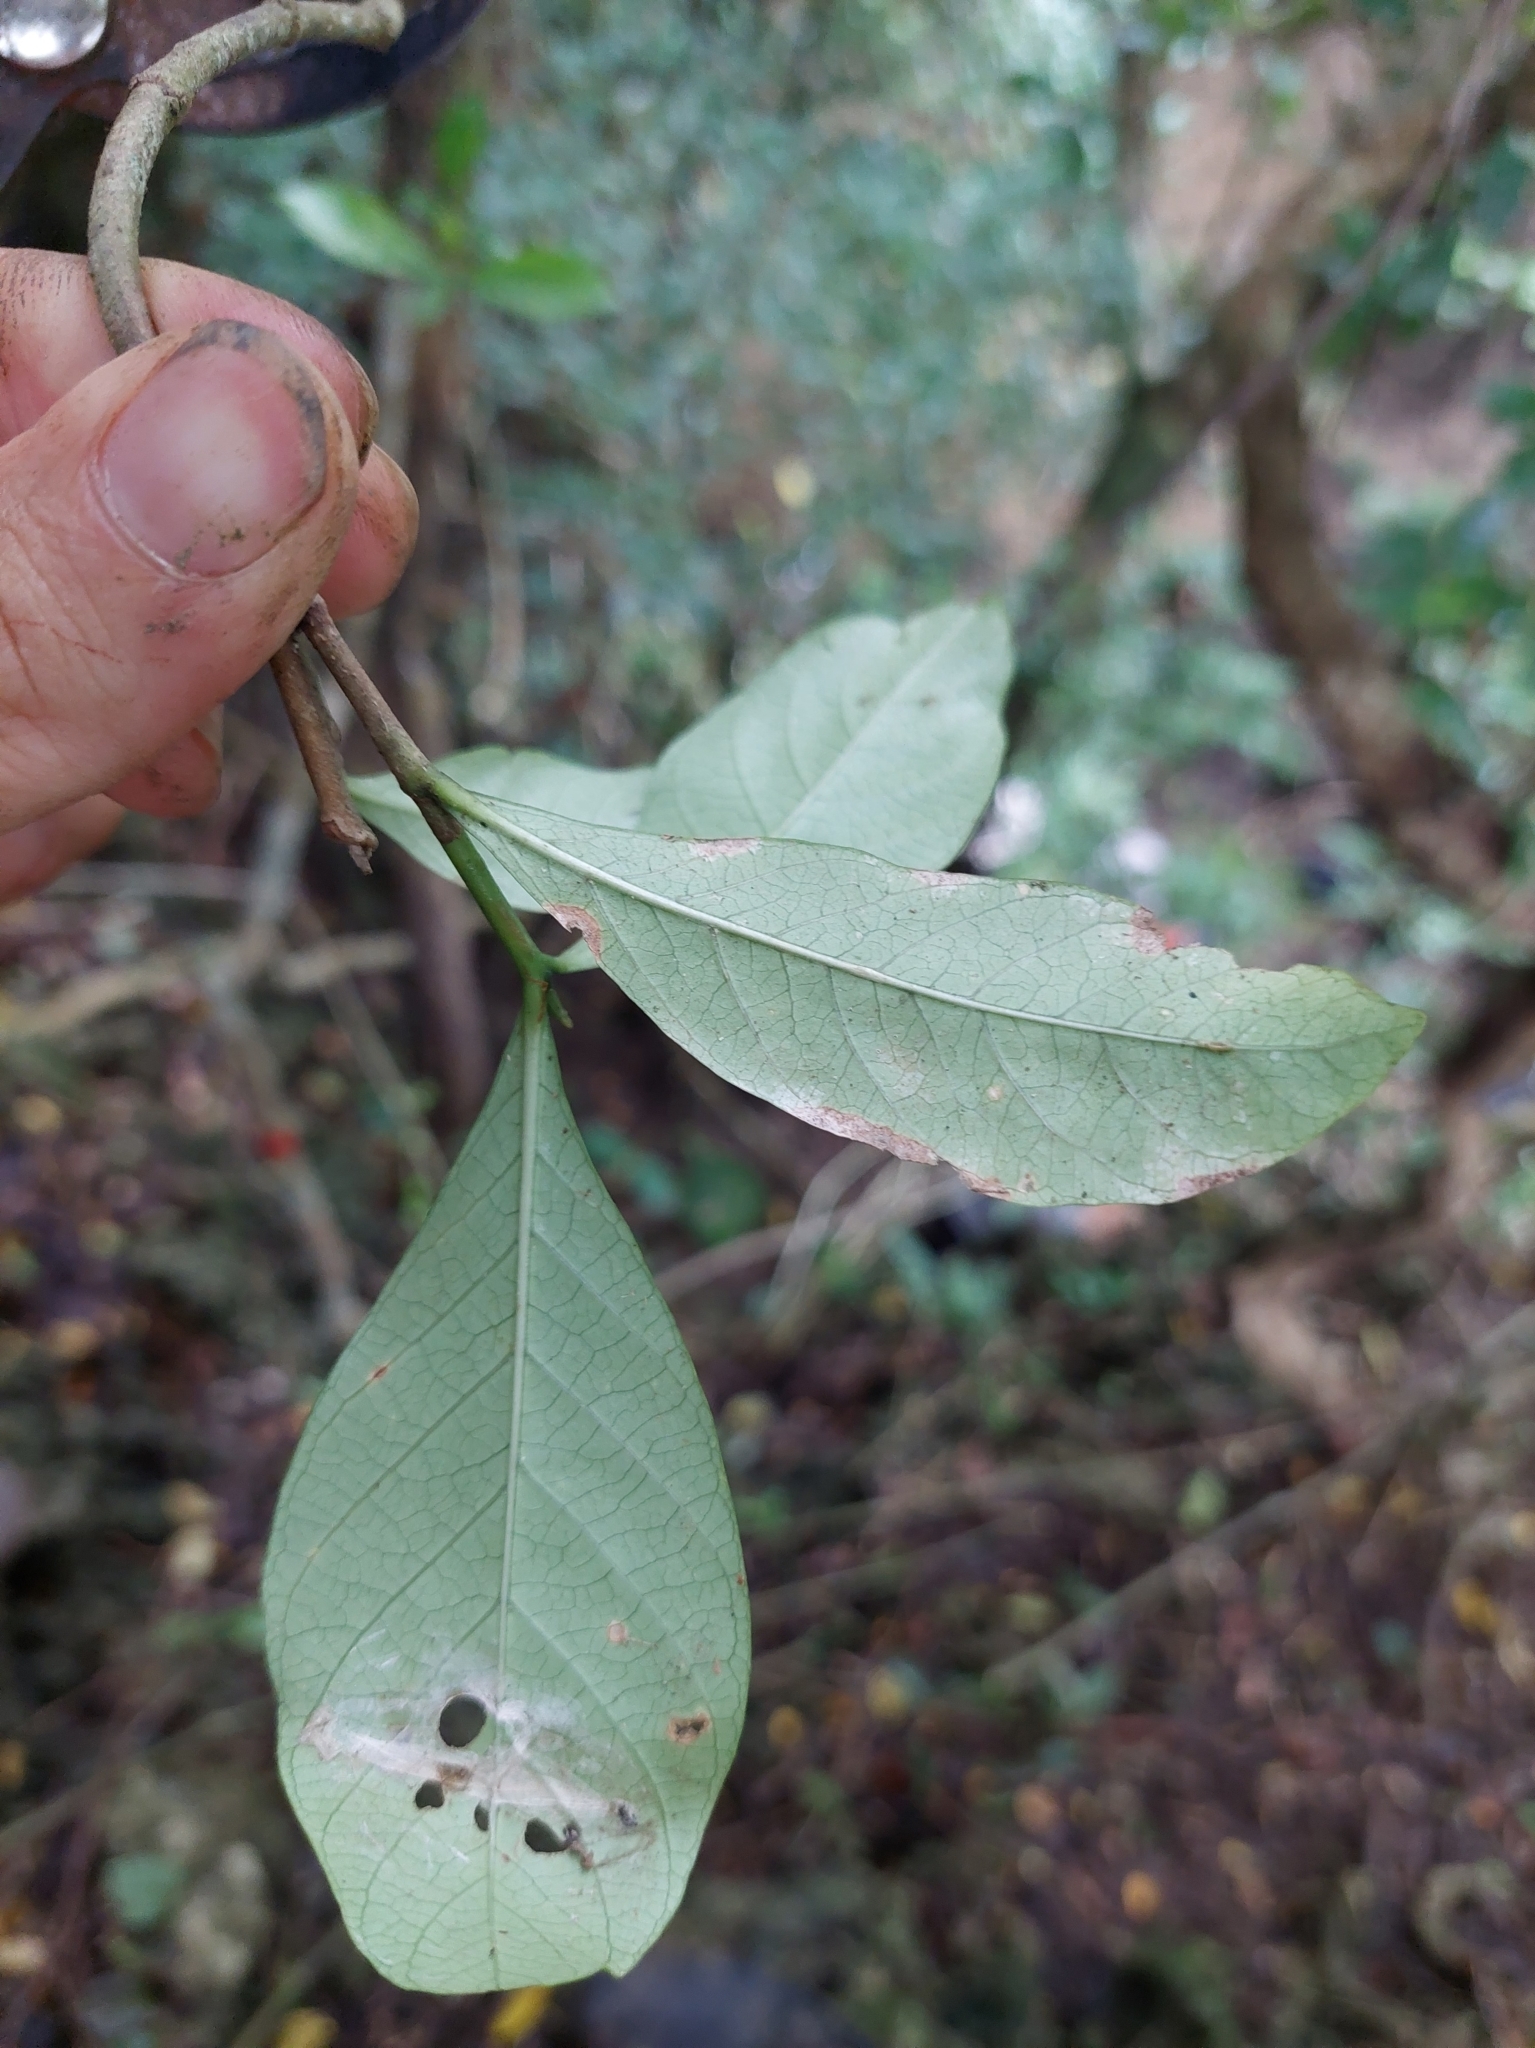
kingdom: Plantae
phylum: Tracheophyta
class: Magnoliopsida
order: Gentianales
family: Rubiaceae
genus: Gardenia
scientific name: Gardenia jasminoides
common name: Cape-jasmine
